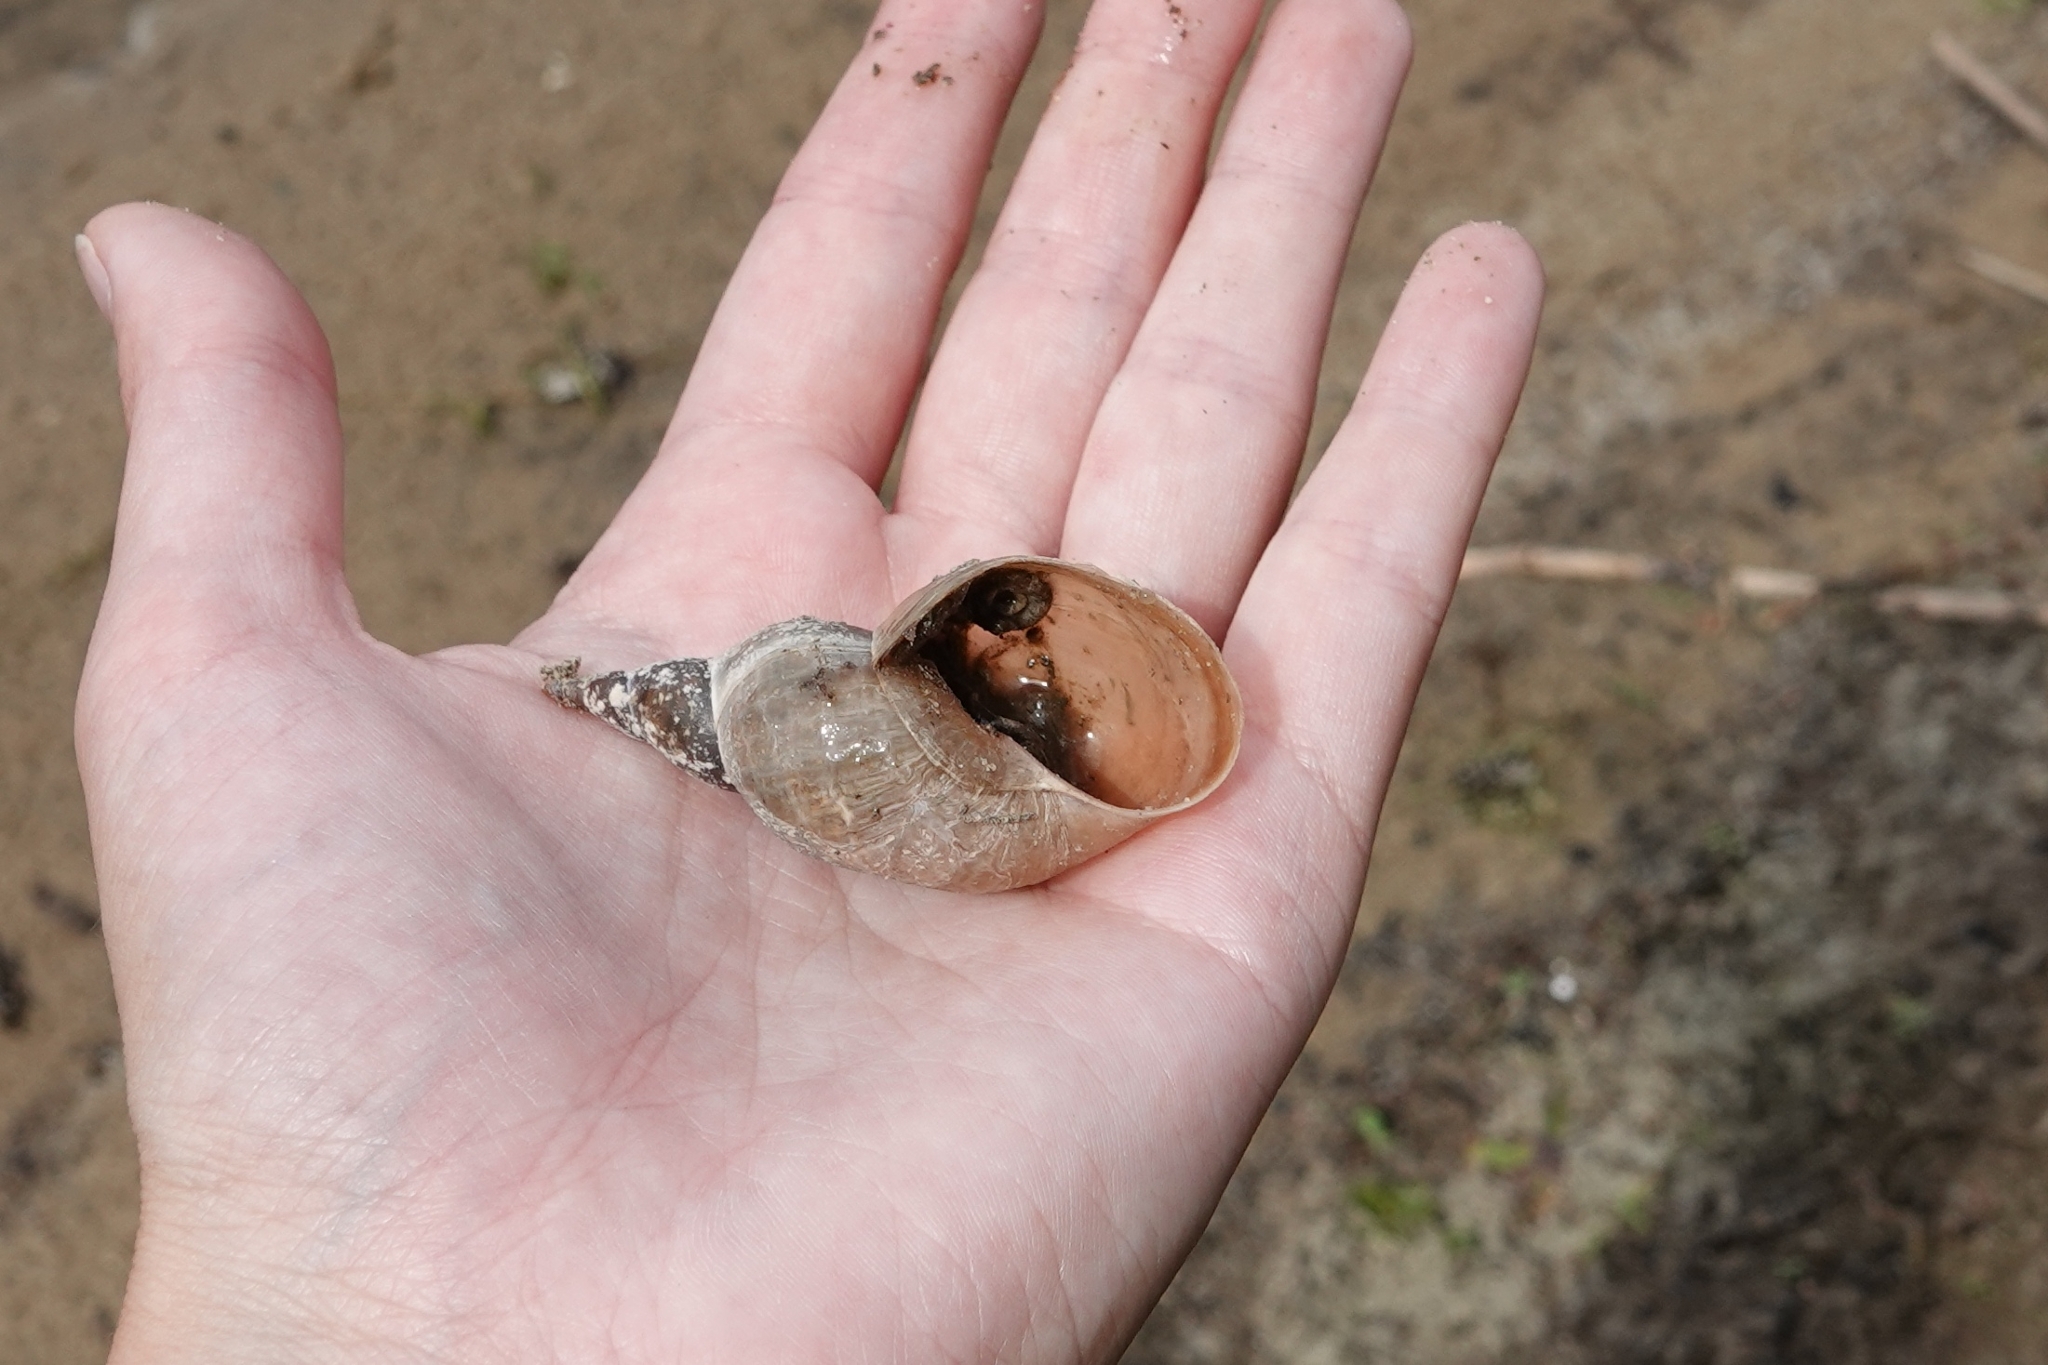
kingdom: Animalia
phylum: Mollusca
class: Gastropoda
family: Lymnaeidae
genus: Lymnaea
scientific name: Lymnaea stagnalis
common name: Great pond snail
